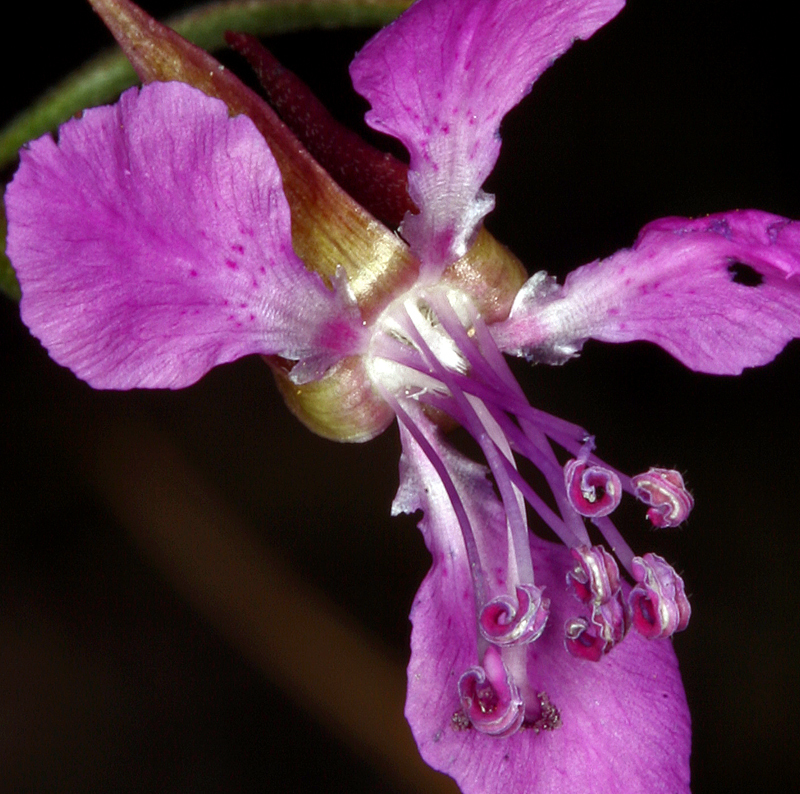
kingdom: Plantae
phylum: Tracheophyta
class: Magnoliopsida
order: Myrtales
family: Onagraceae
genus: Clarkia
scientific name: Clarkia rhomboidea
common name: Broadleaf clarkia
